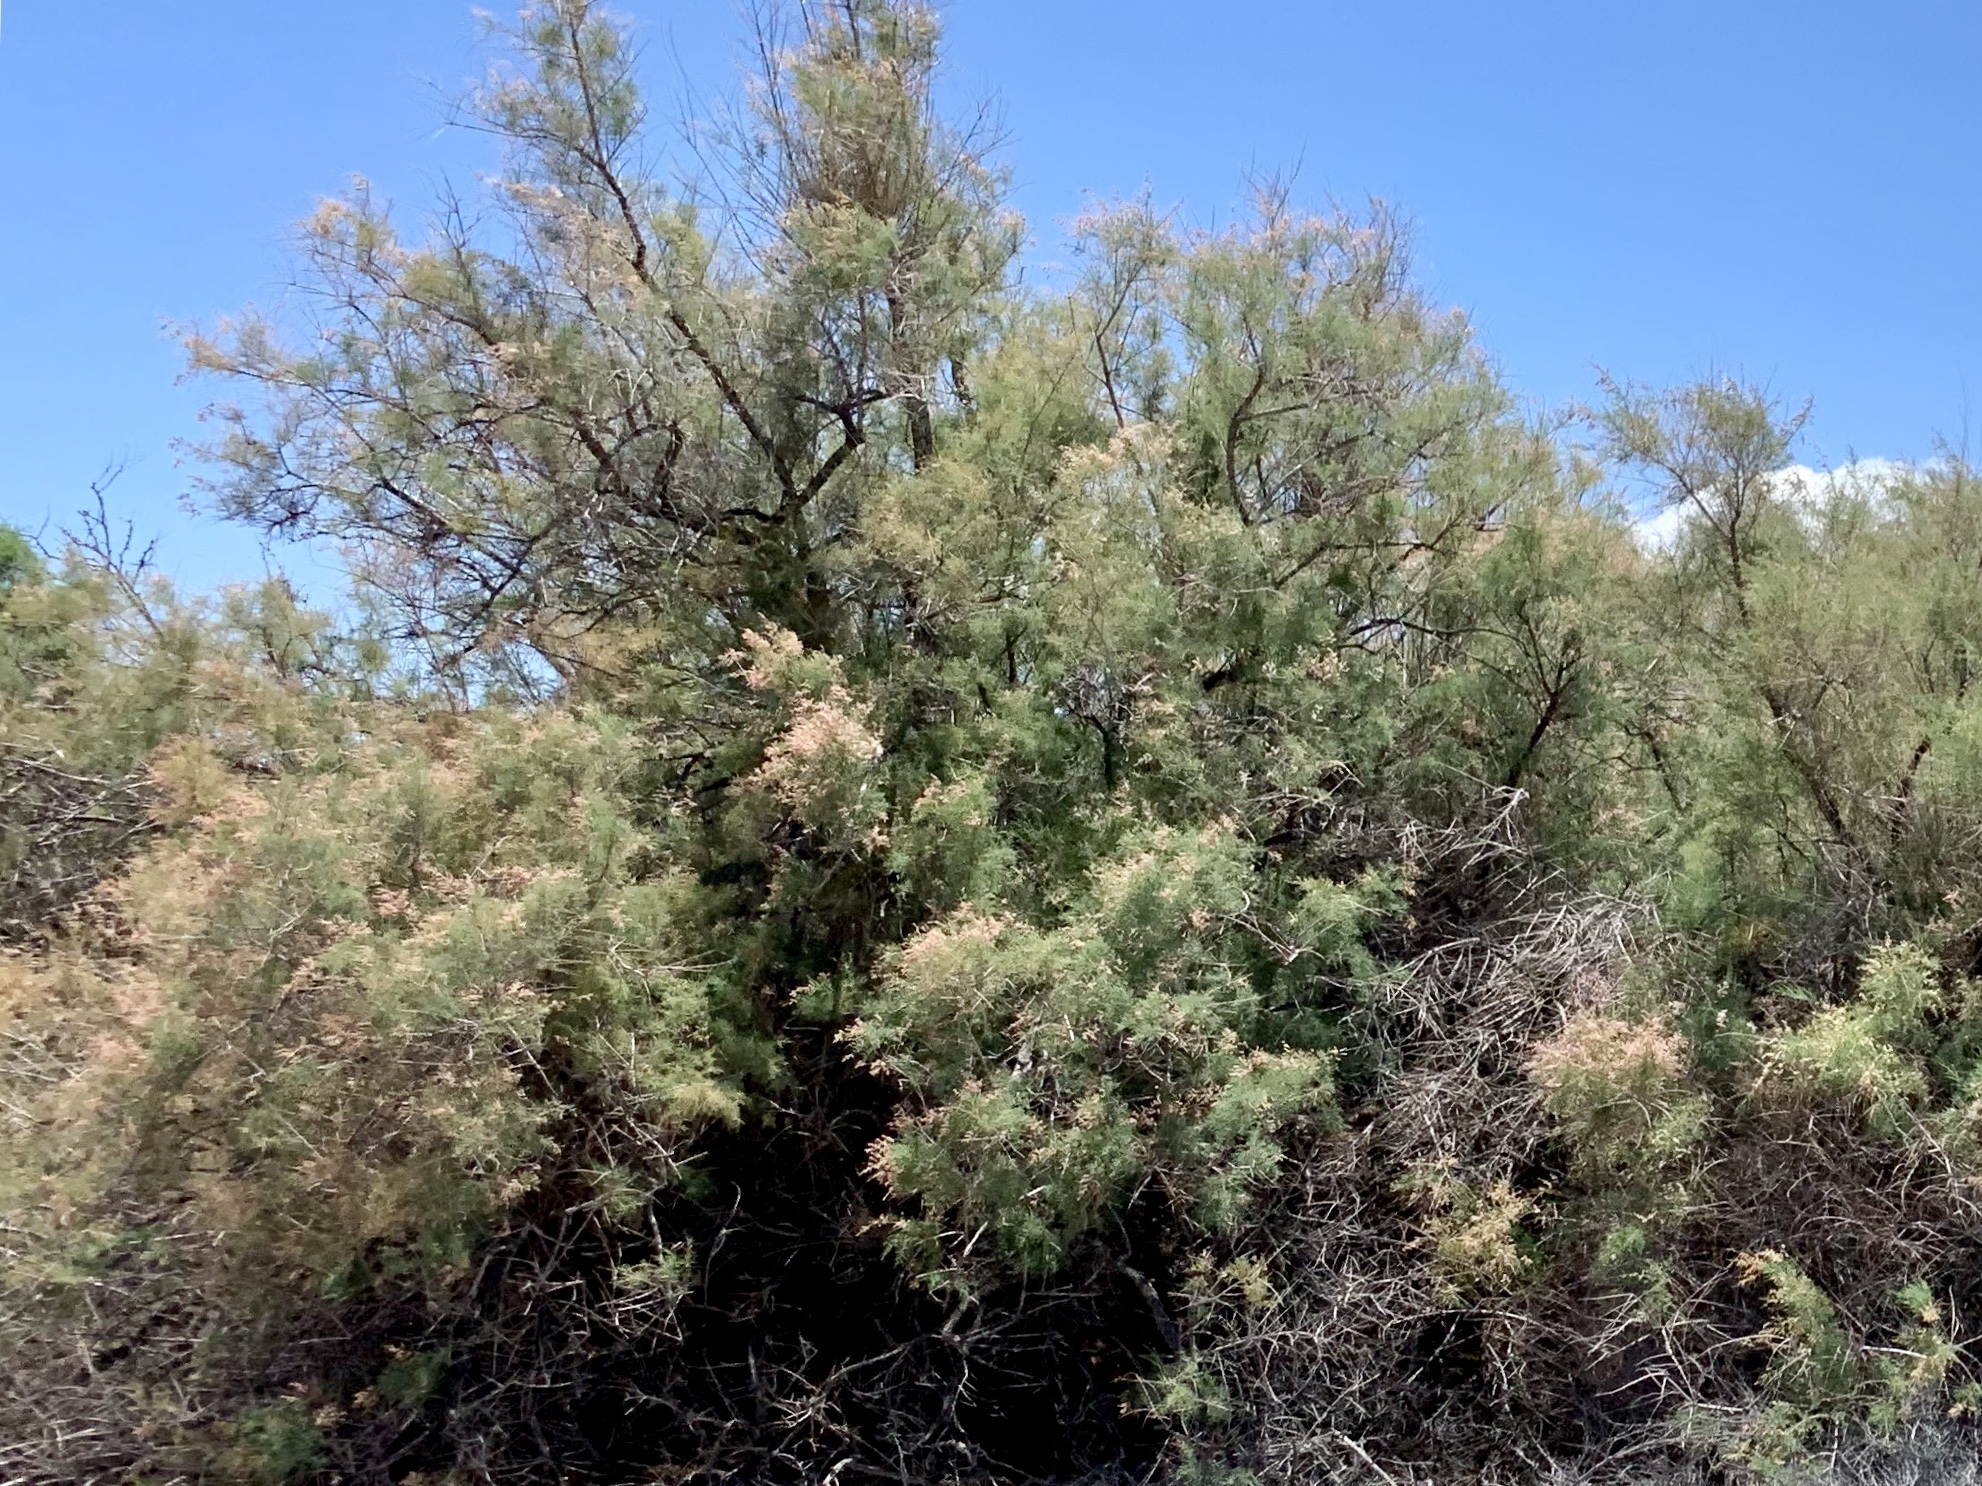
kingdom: Plantae
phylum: Tracheophyta
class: Magnoliopsida
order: Caryophyllales
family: Tamaricaceae
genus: Tamarix
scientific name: Tamarix
